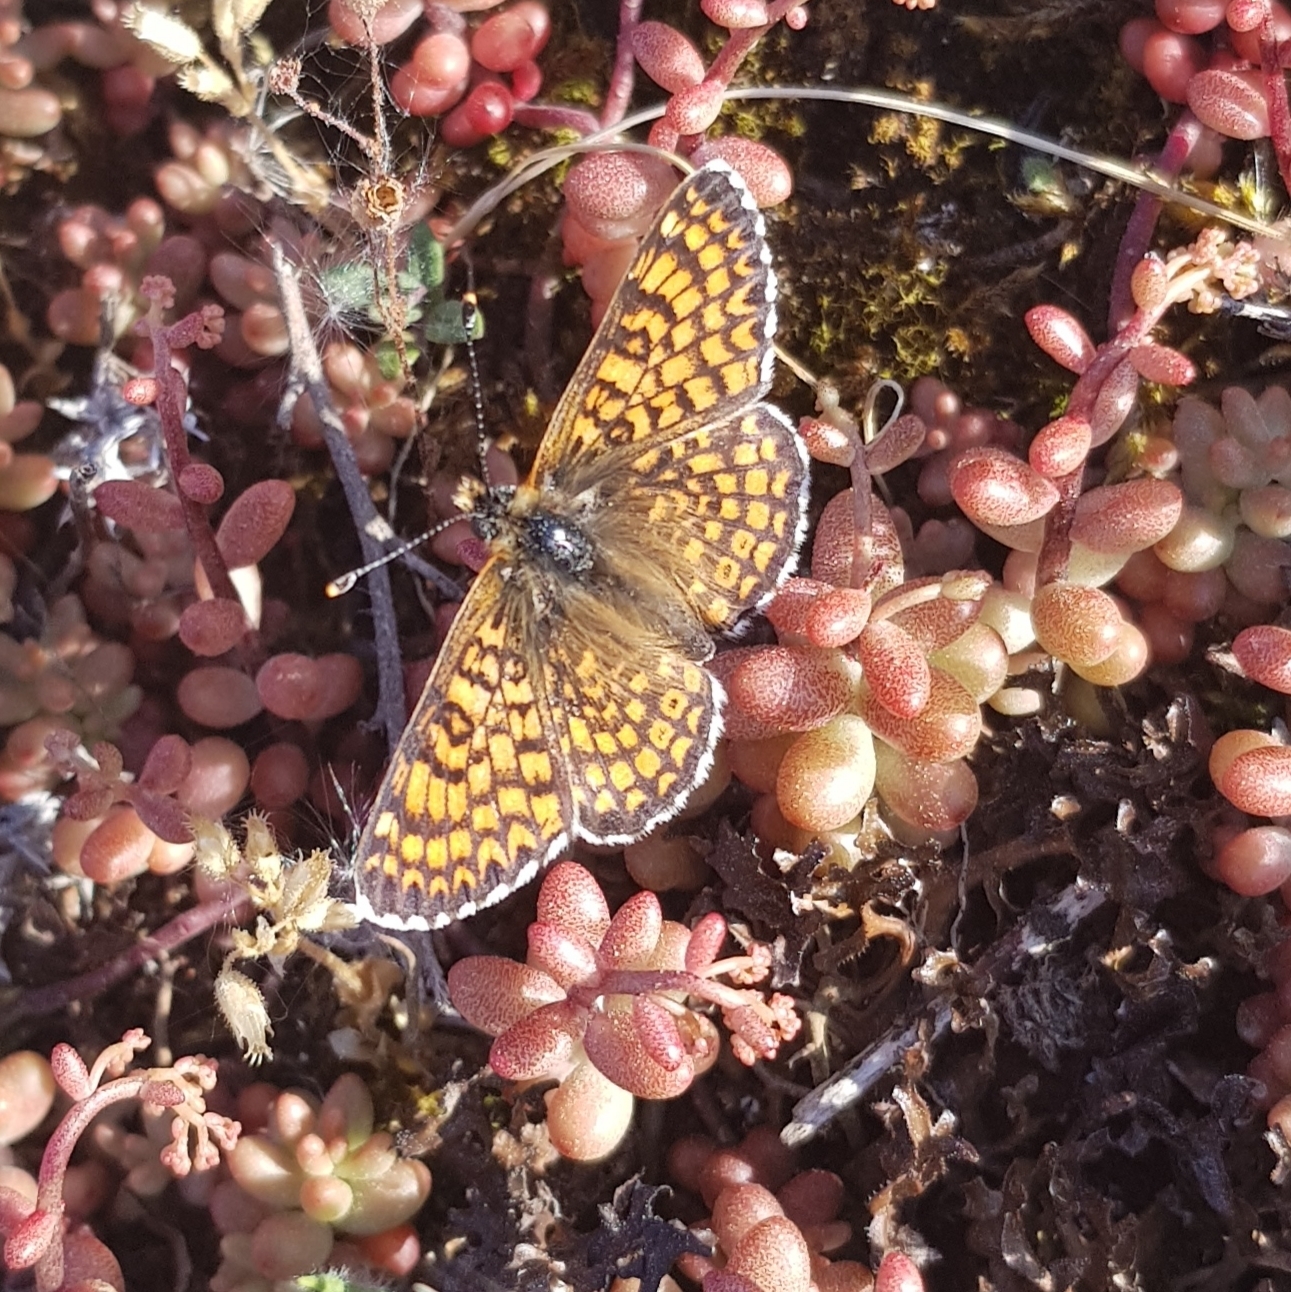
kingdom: Animalia
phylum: Arthropoda
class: Insecta
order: Lepidoptera
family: Nymphalidae
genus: Melitaea
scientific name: Melitaea cinxia
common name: Glanville fritillary
